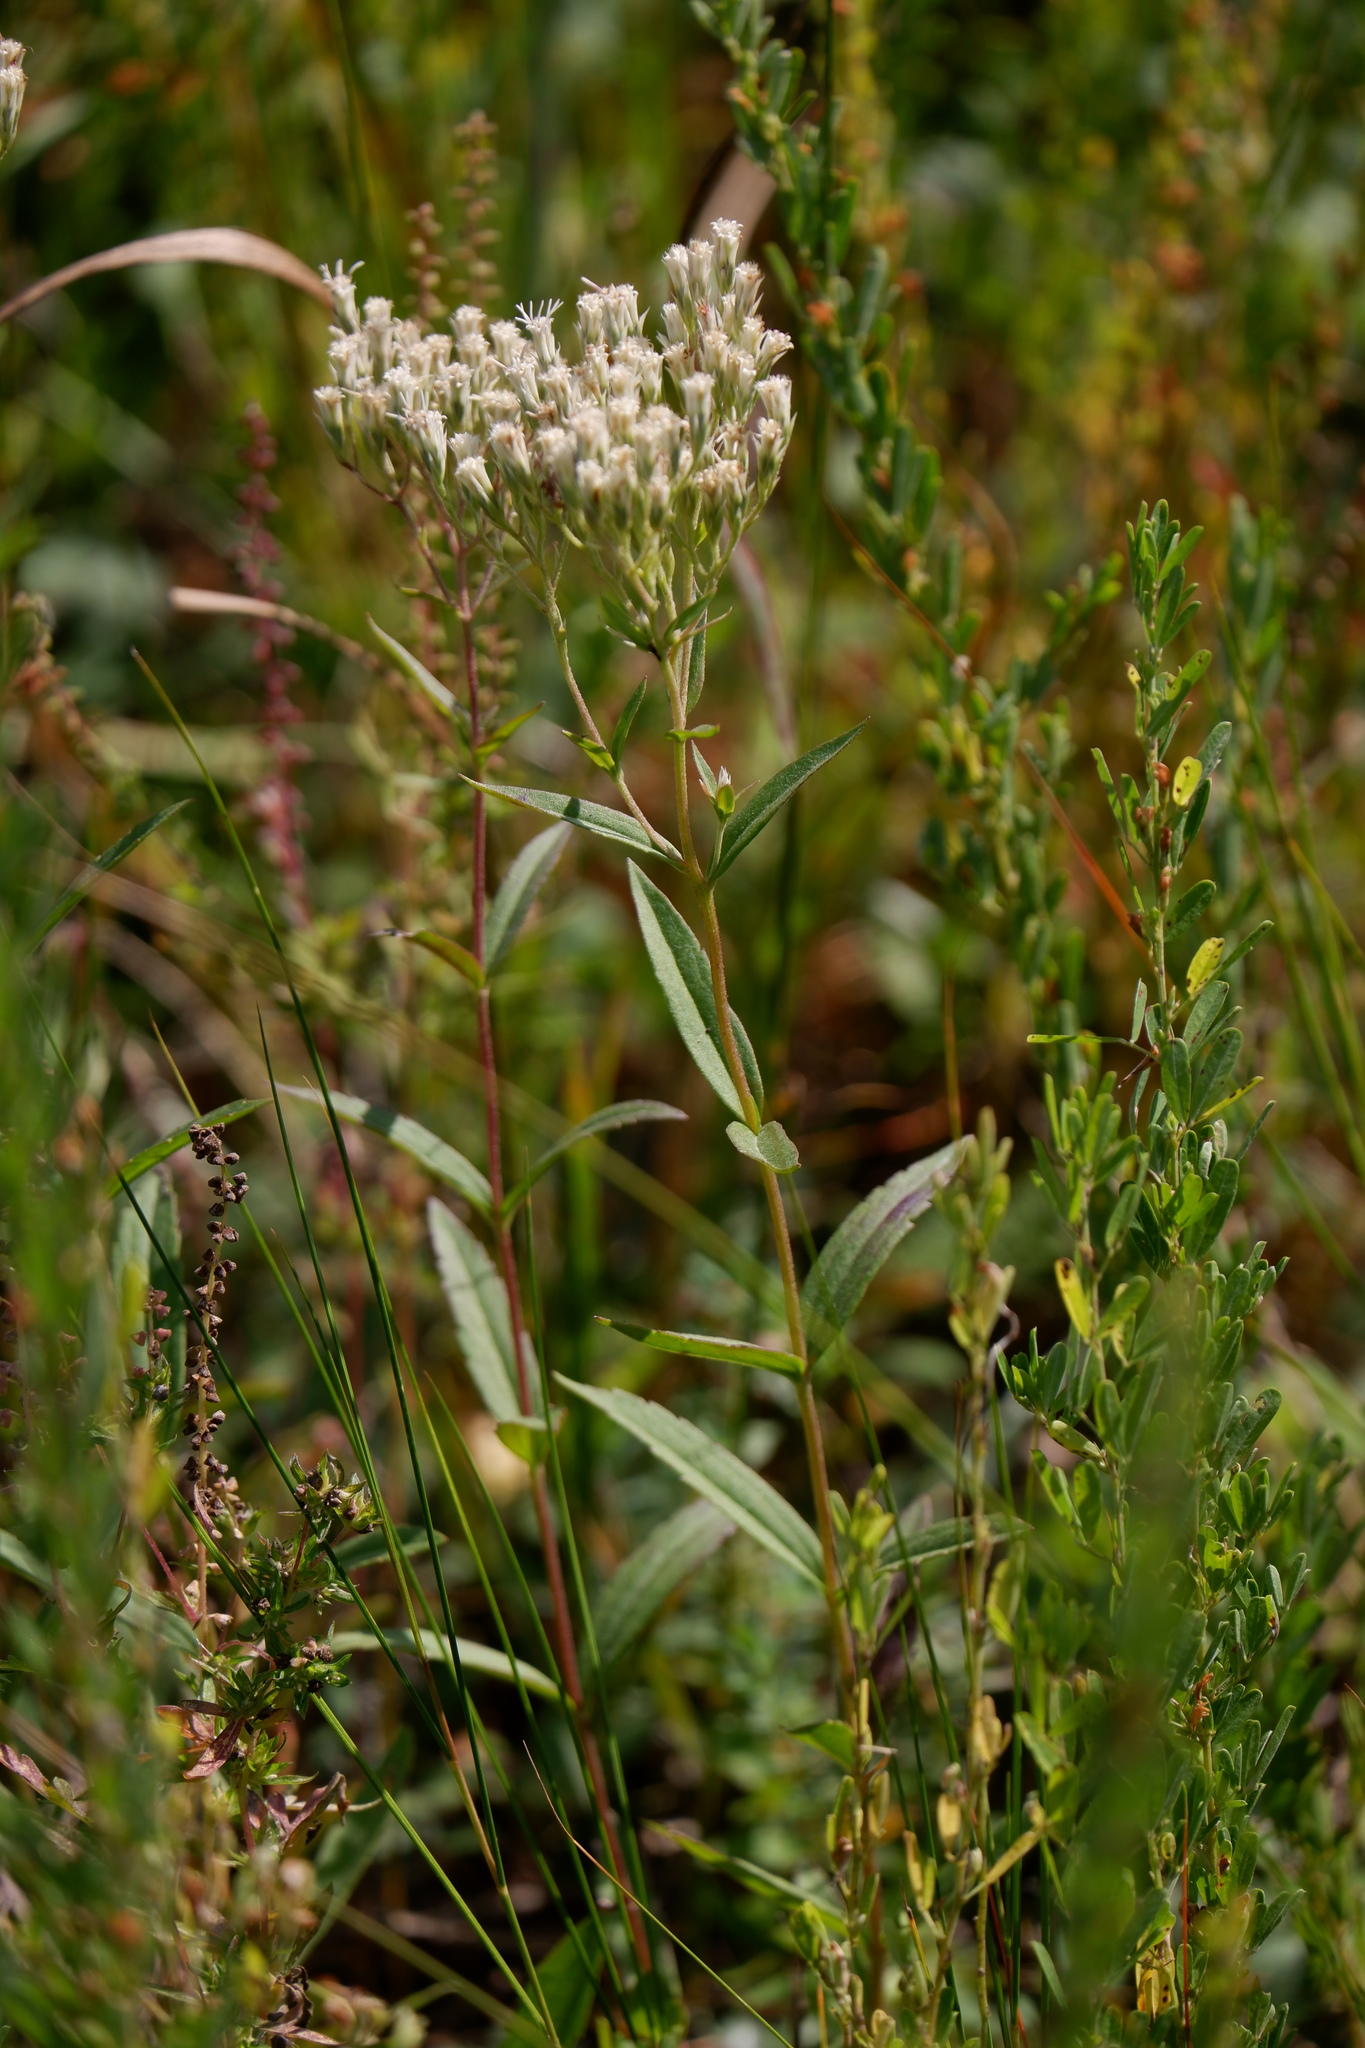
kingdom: Plantae
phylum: Tracheophyta
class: Magnoliopsida
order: Asterales
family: Asteraceae
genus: Eupatorium
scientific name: Eupatorium album
